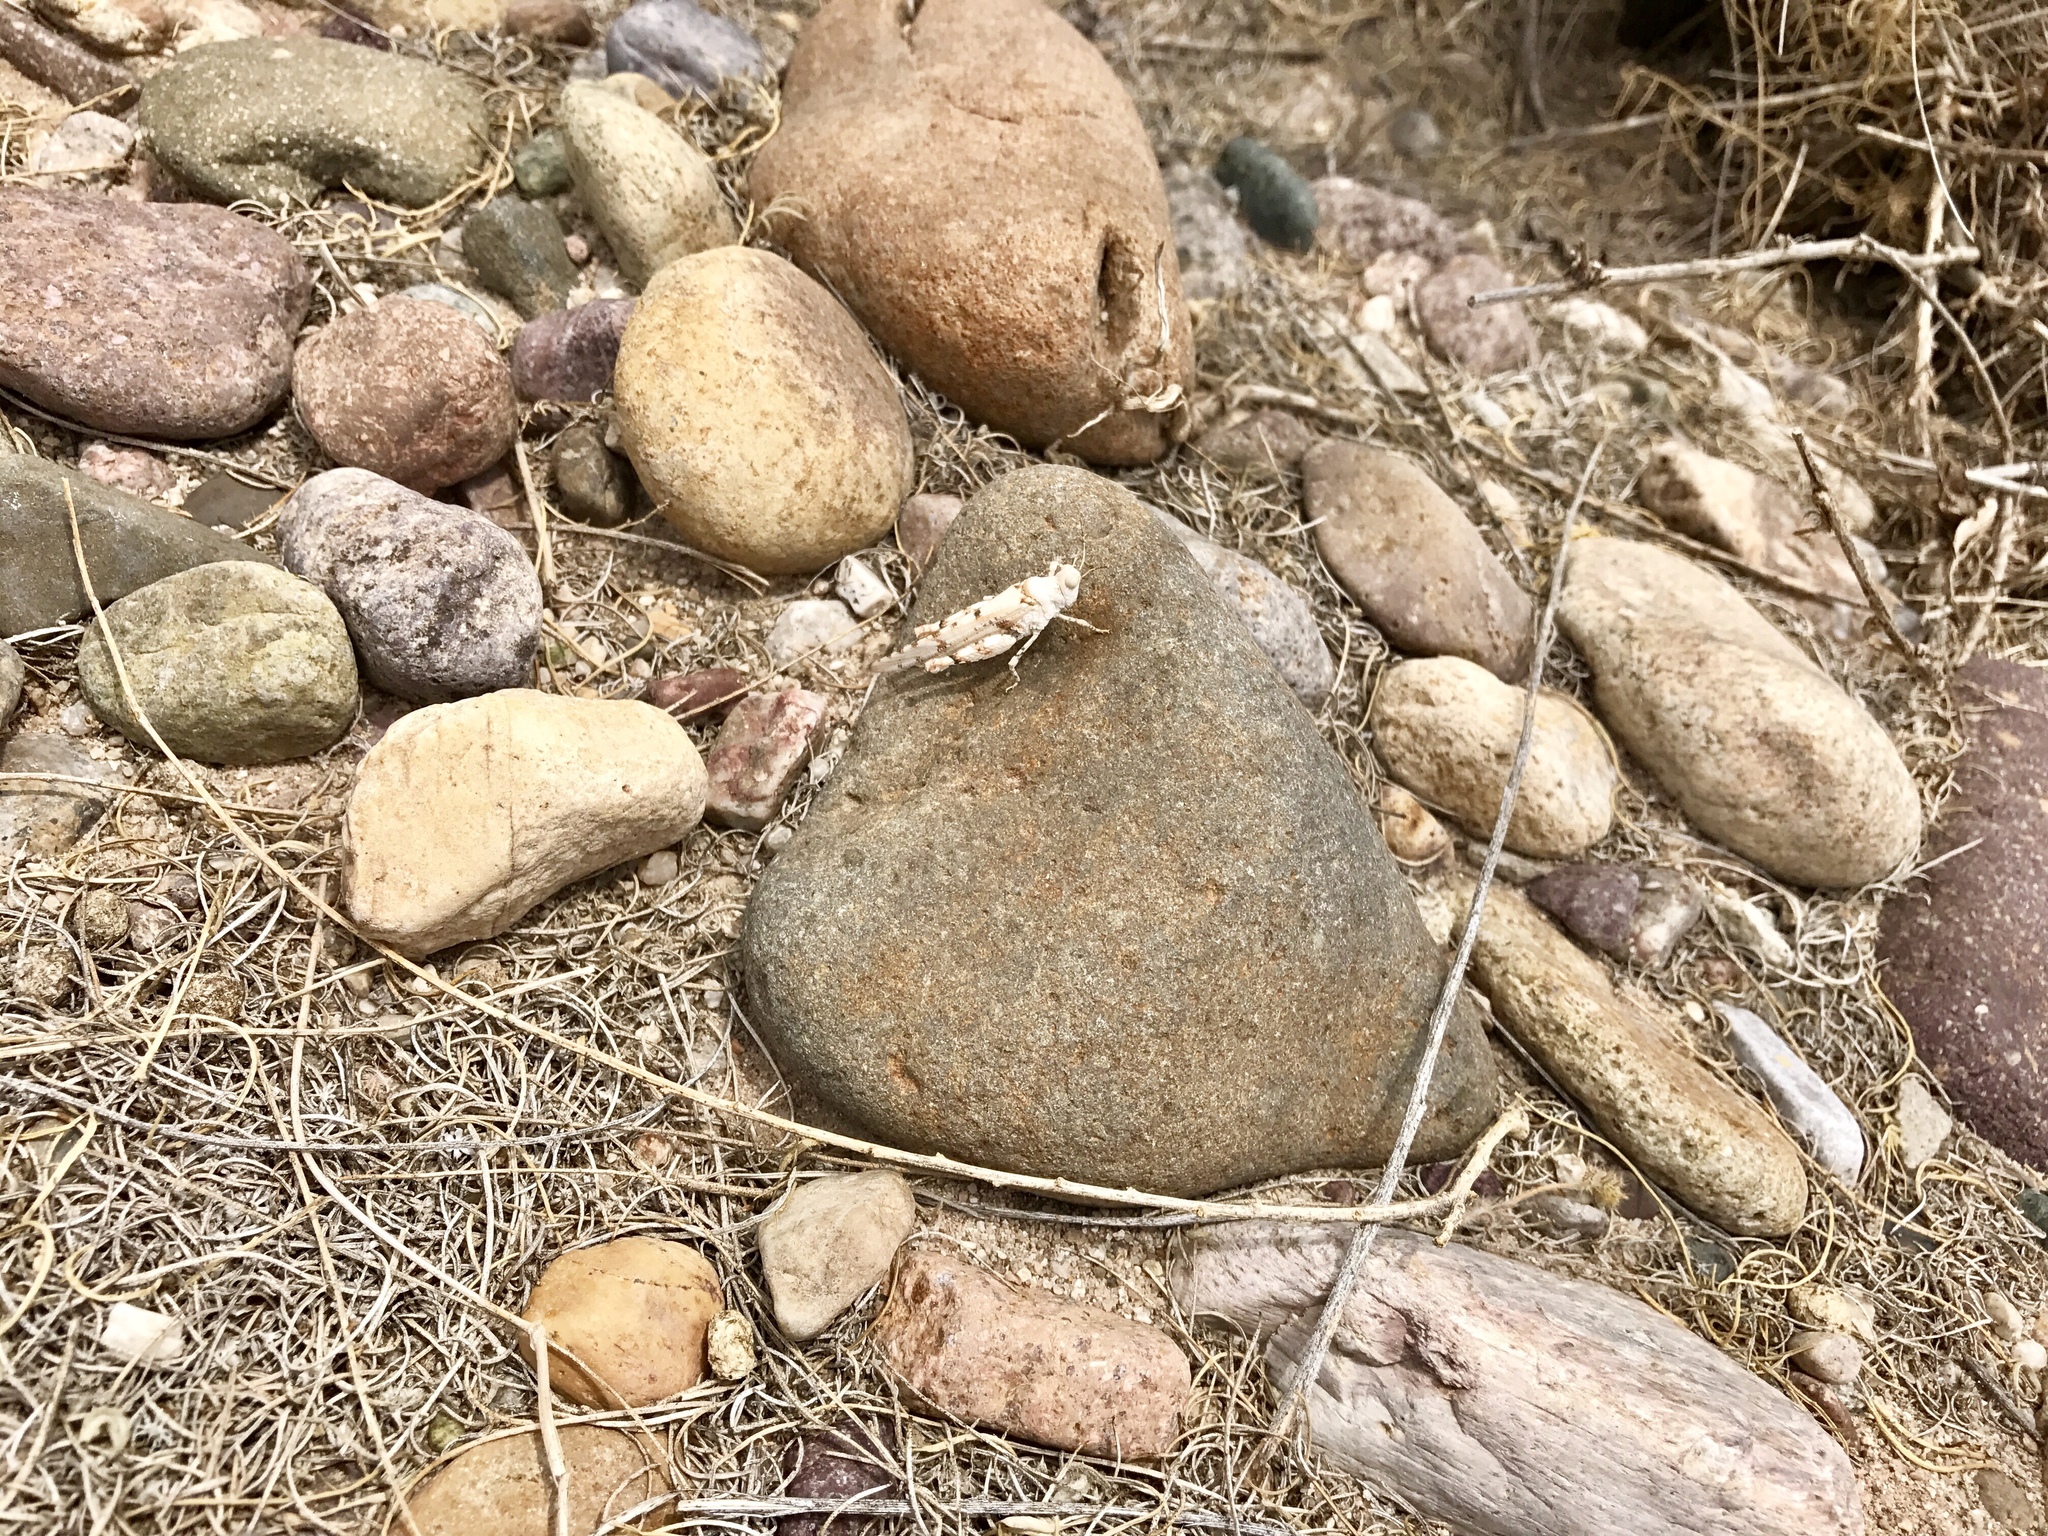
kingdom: Animalia
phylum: Arthropoda
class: Insecta
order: Orthoptera
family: Acrididae
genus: Cibolacris
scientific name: Cibolacris parviceps
